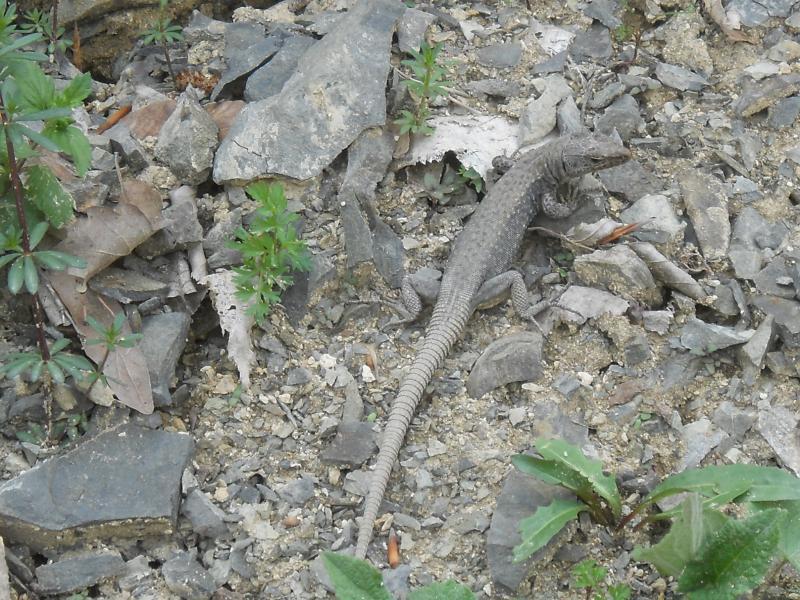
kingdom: Animalia
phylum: Chordata
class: Squamata
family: Lacertidae
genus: Darevskia
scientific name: Darevskia rudis
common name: Spiny-tailed lizard
